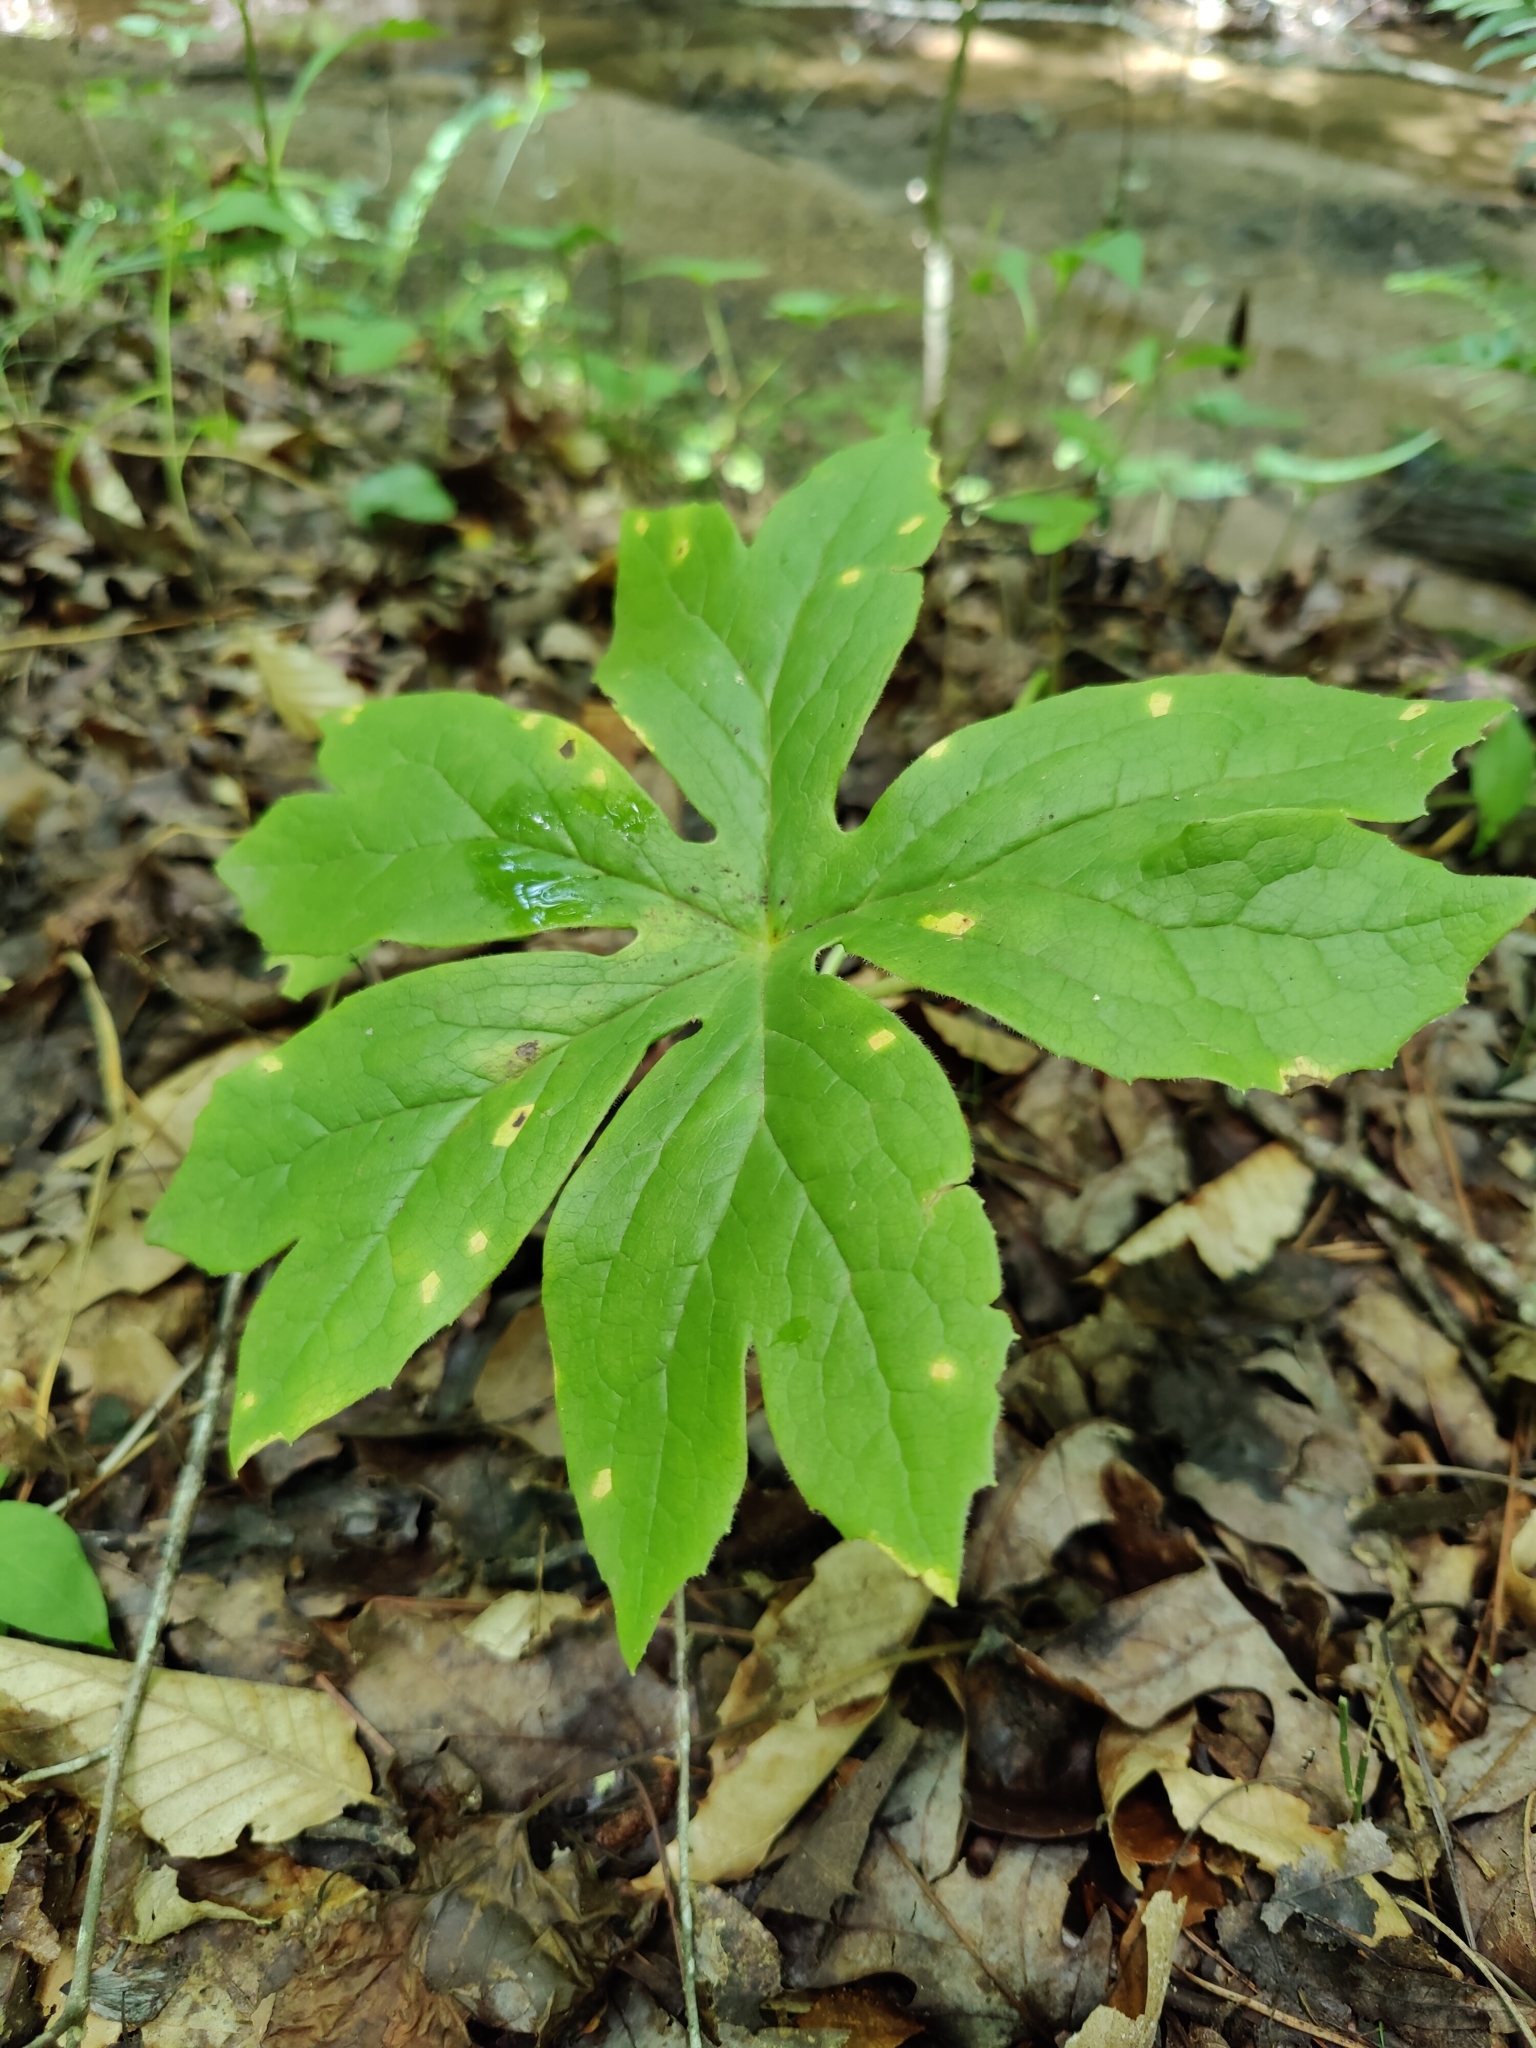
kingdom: Plantae
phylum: Tracheophyta
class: Magnoliopsida
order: Ranunculales
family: Berberidaceae
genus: Podophyllum
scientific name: Podophyllum peltatum
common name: Wild mandrake
